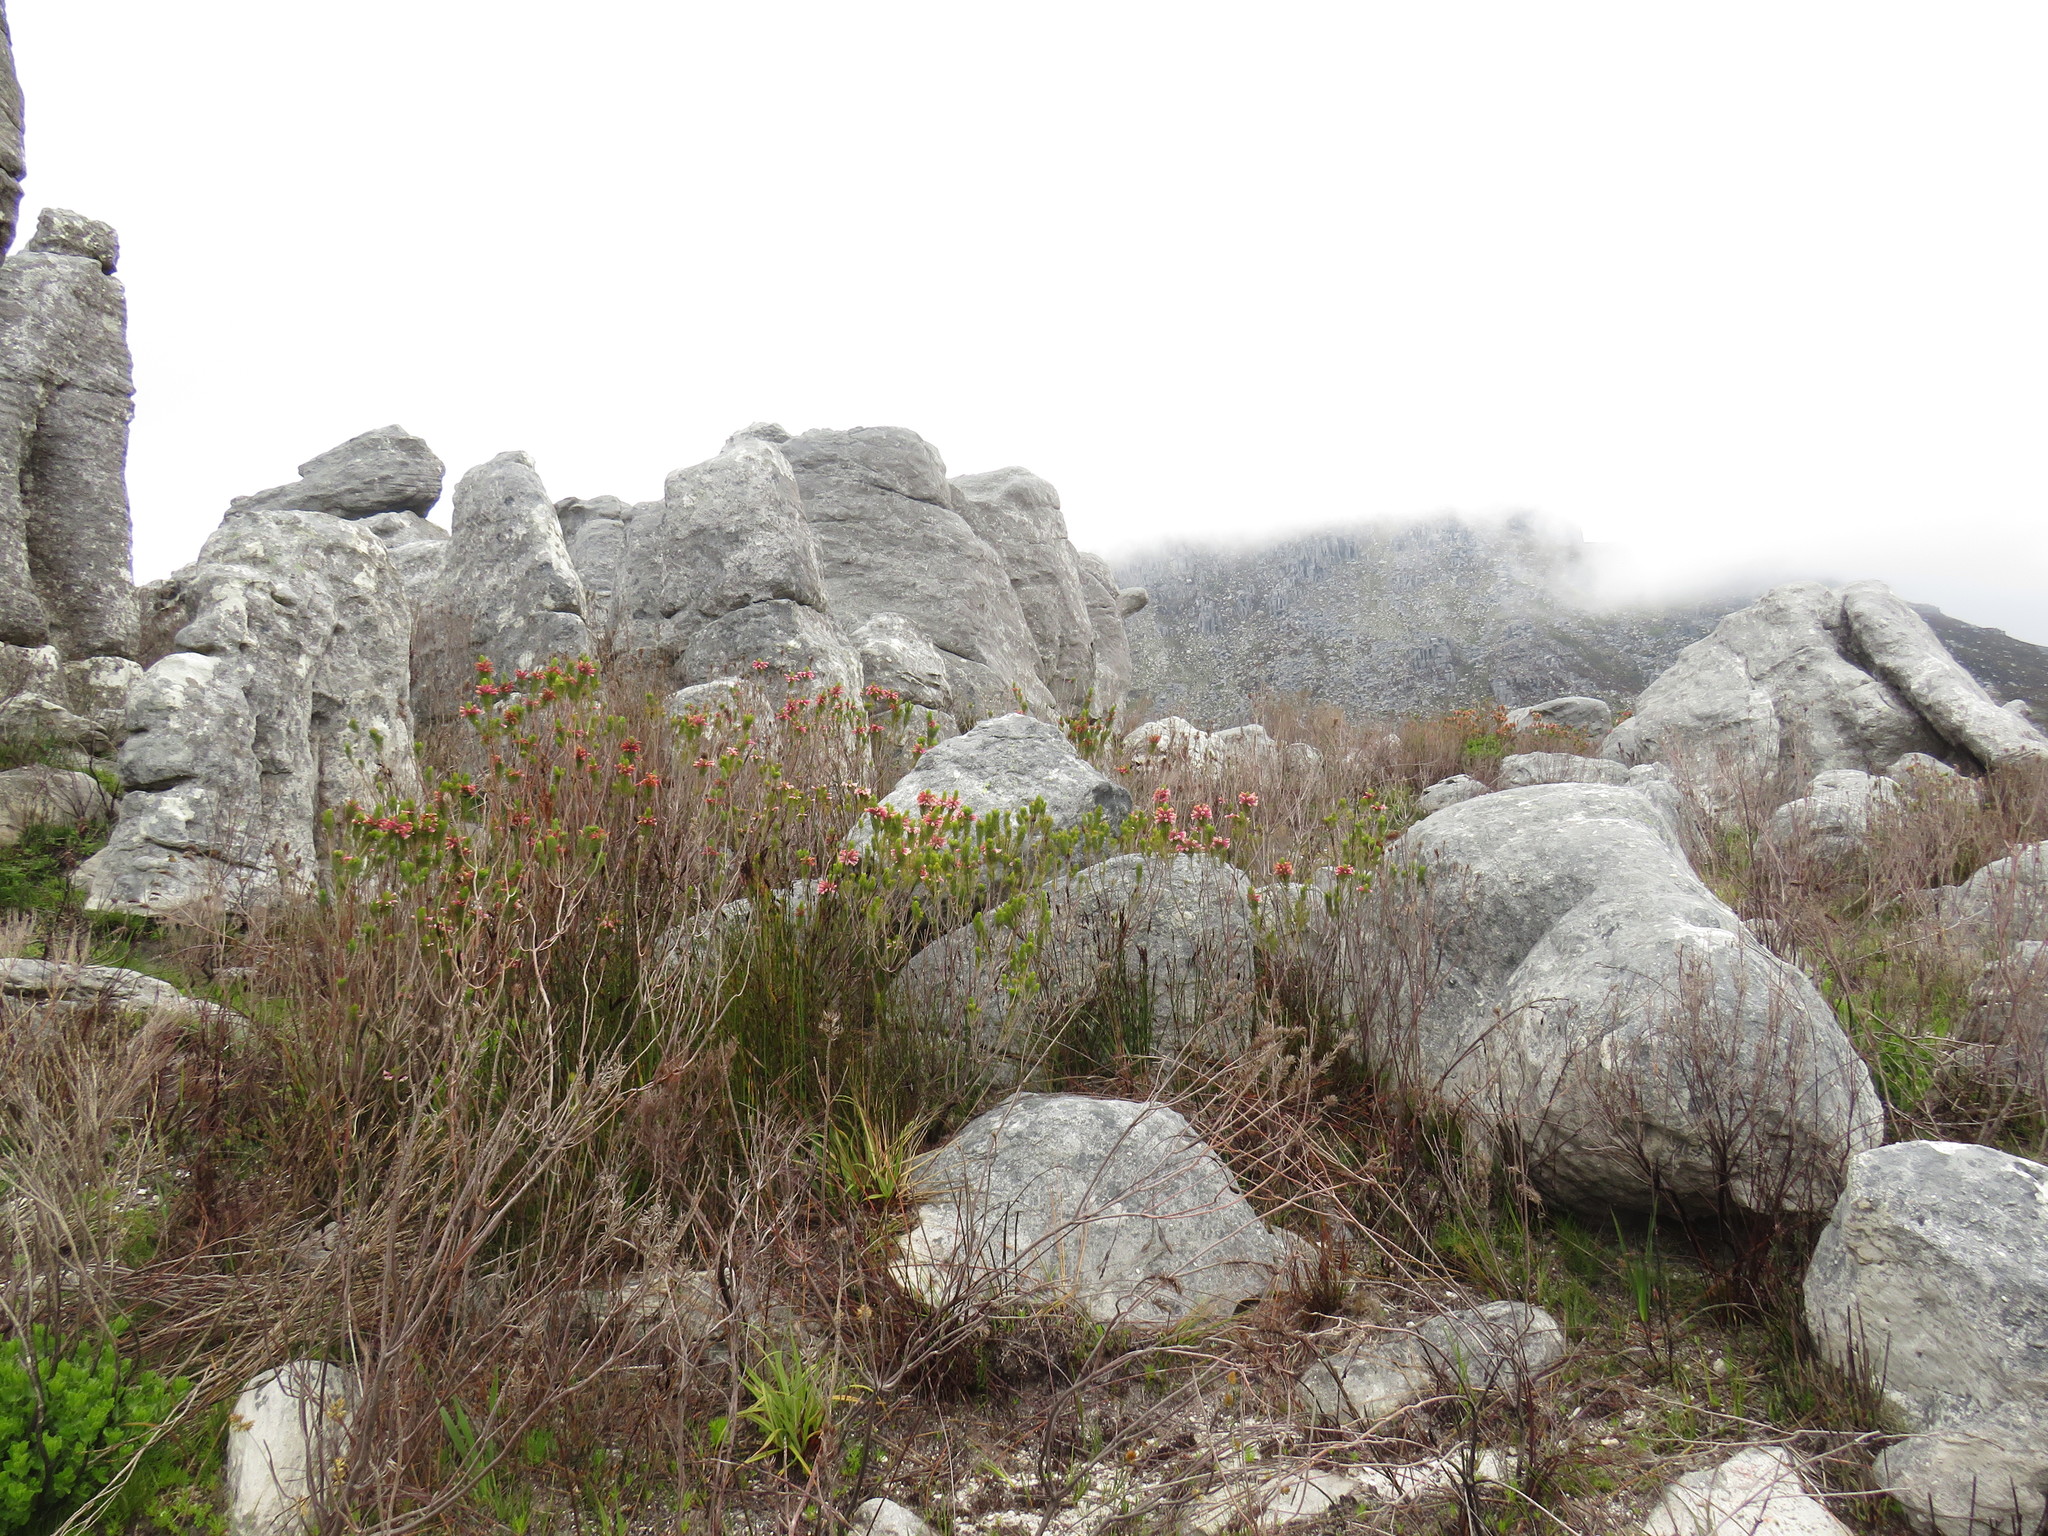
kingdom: Plantae
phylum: Tracheophyta
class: Magnoliopsida
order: Ericales
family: Ericaceae
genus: Erica
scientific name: Erica viscaria
